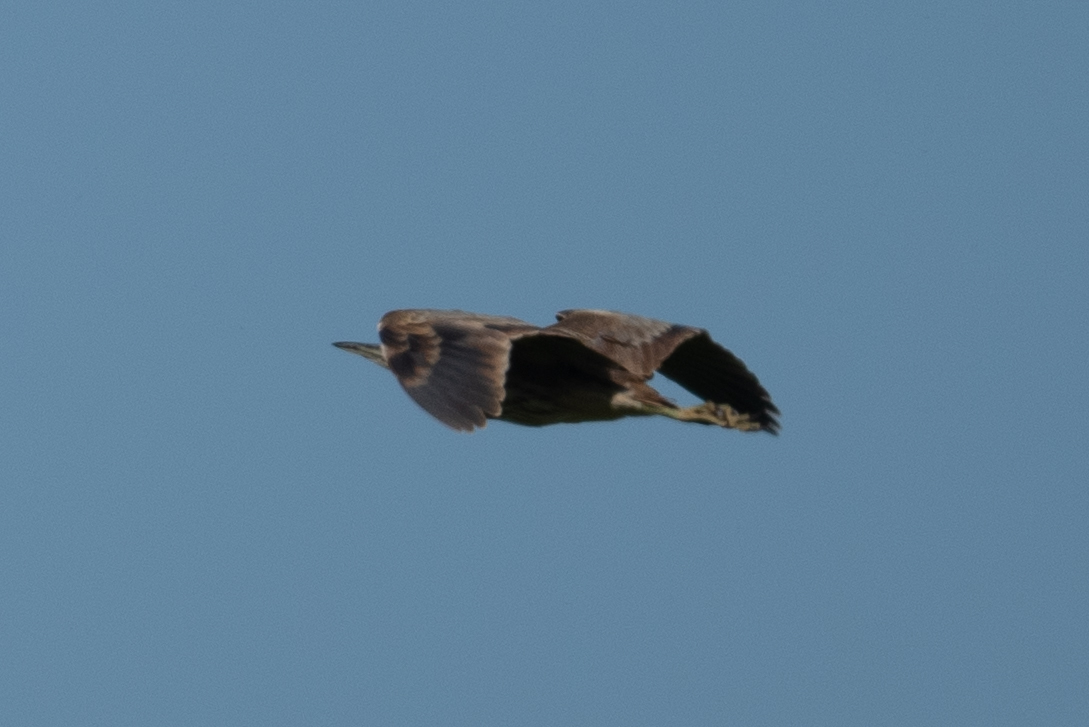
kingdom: Animalia
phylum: Chordata
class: Aves
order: Pelecaniformes
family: Ardeidae
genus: Botaurus
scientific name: Botaurus lentiginosus
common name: American bittern
